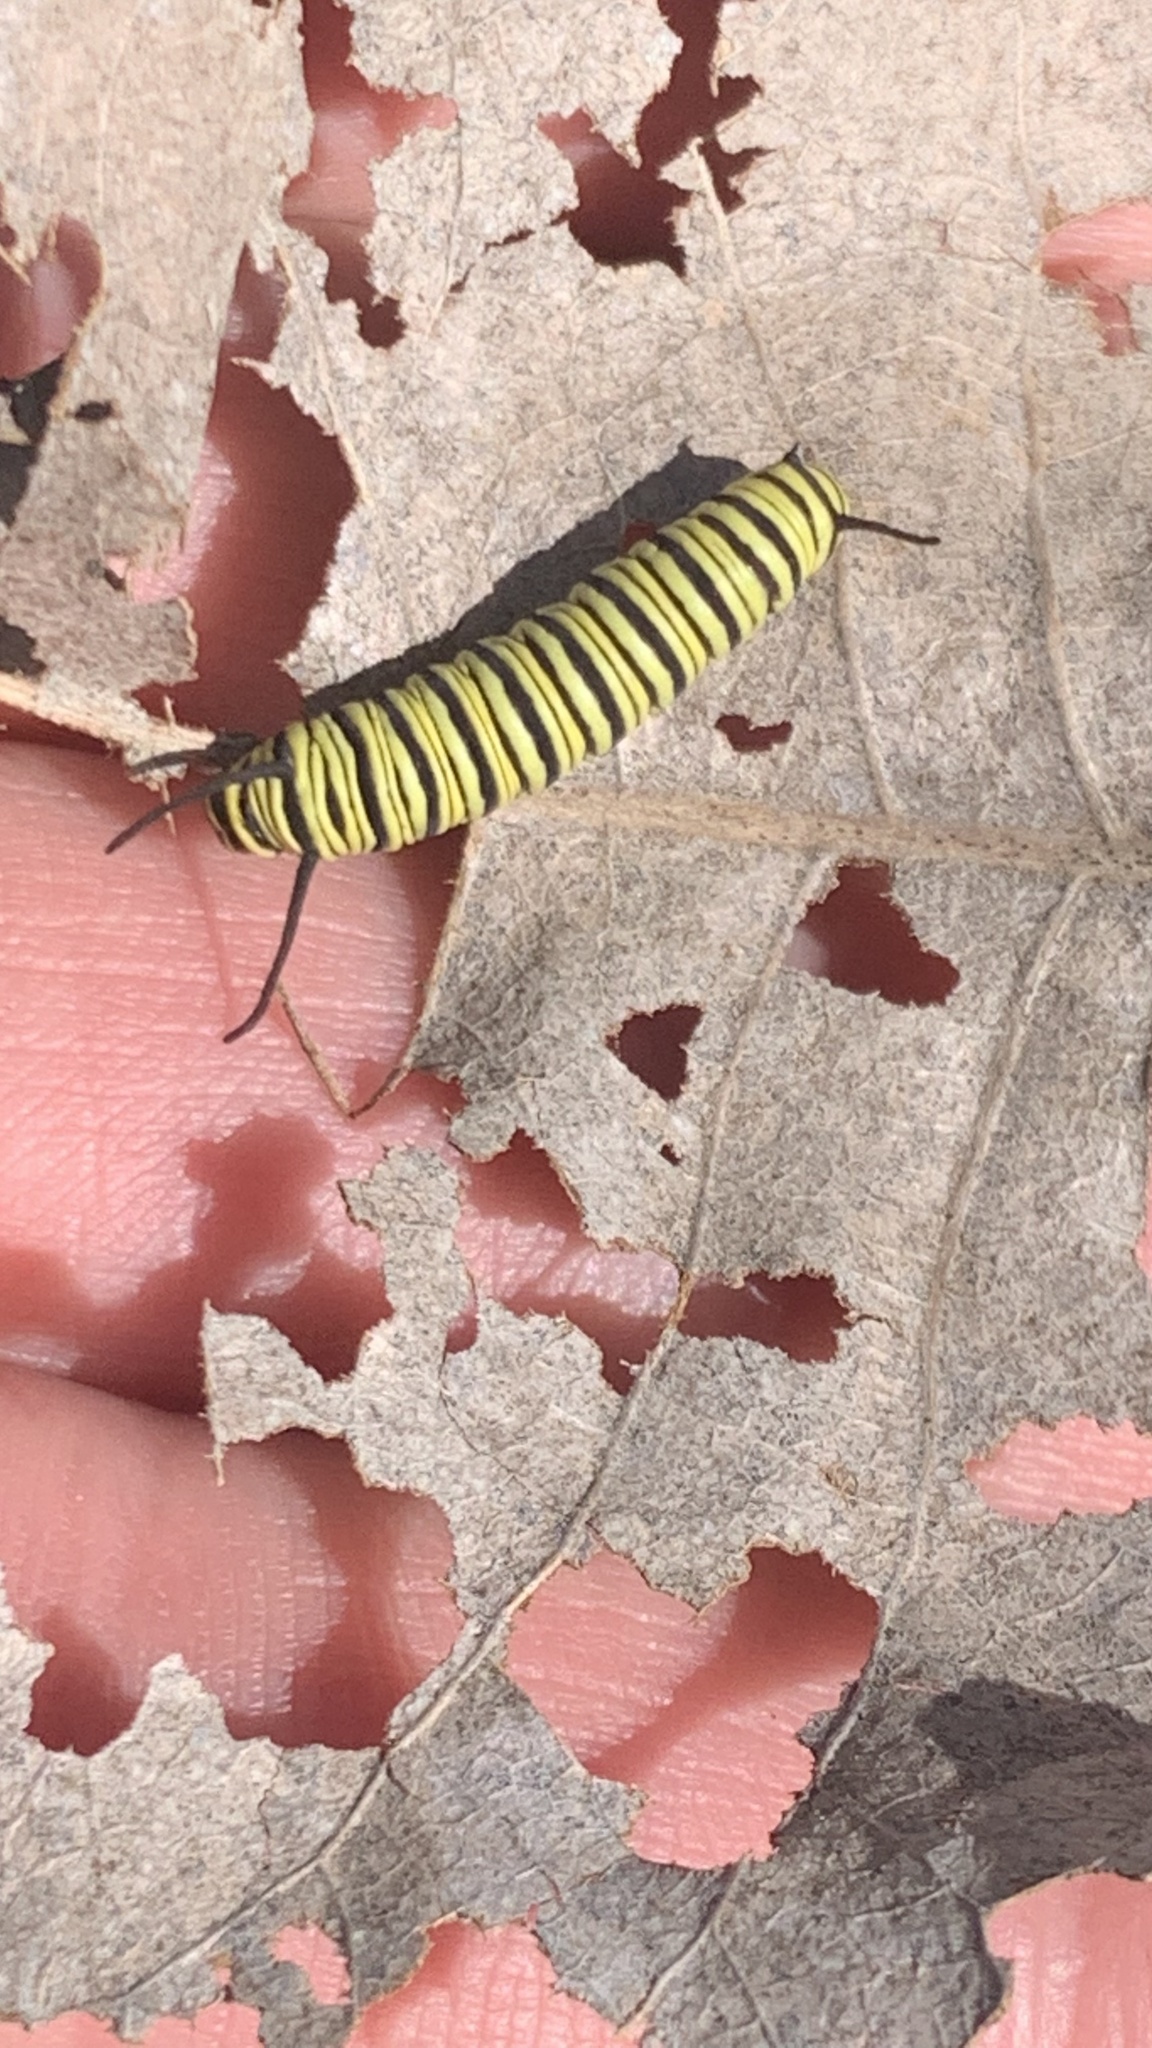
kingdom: Animalia
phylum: Arthropoda
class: Insecta
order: Lepidoptera
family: Nymphalidae
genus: Danaus
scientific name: Danaus erippus
